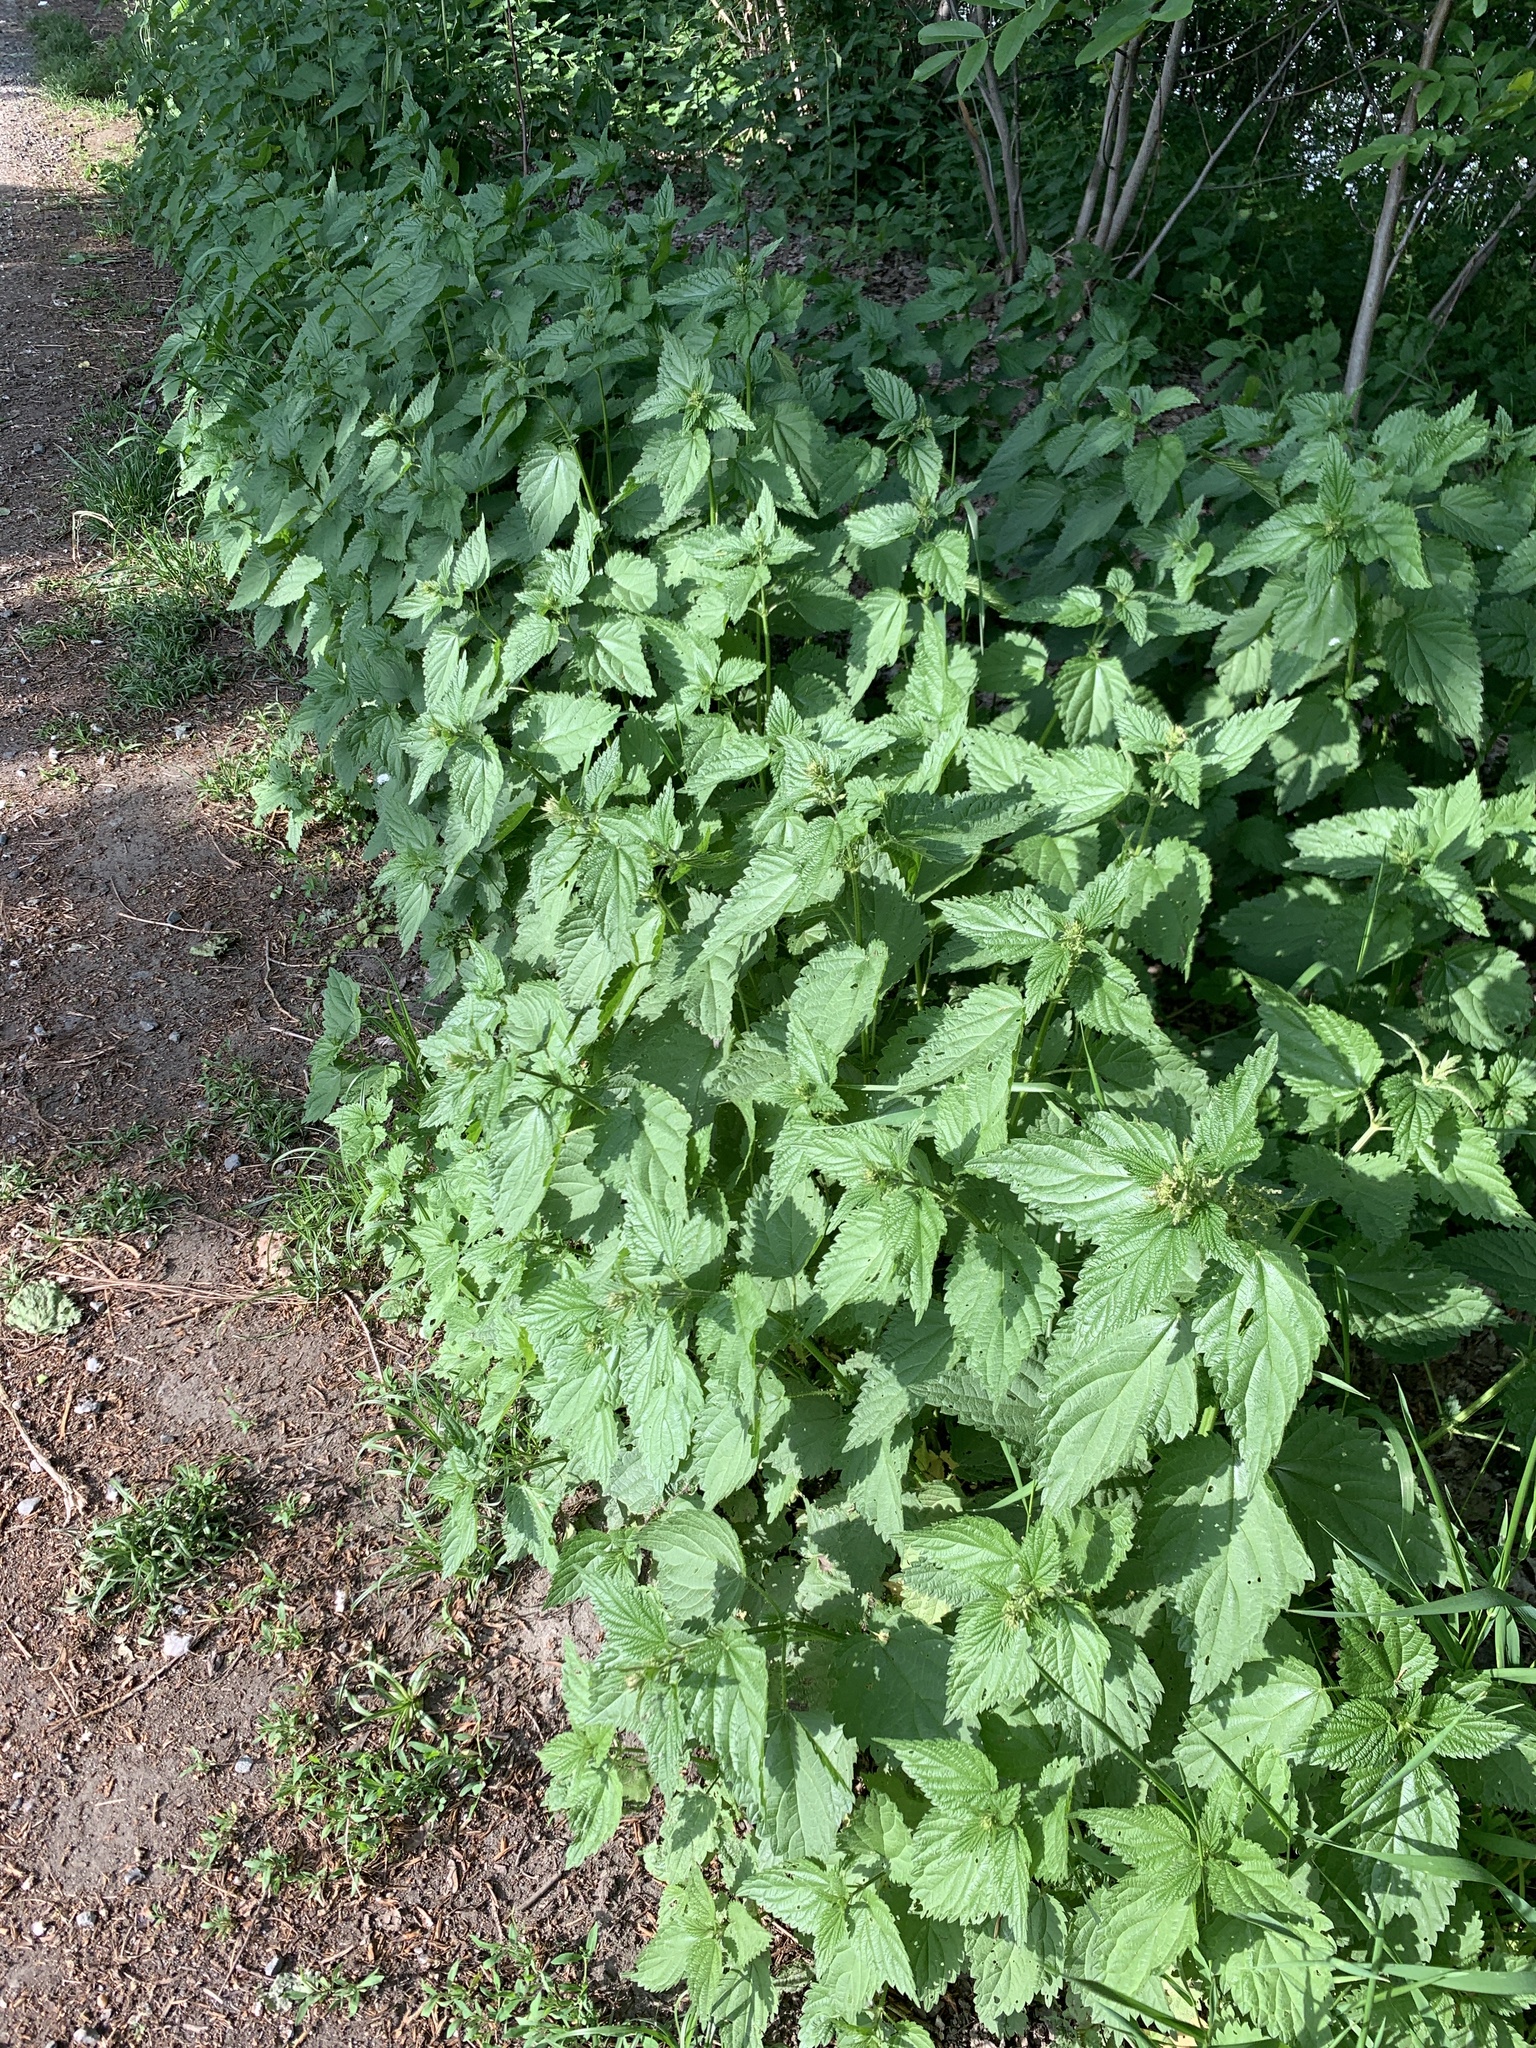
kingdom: Plantae
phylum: Tracheophyta
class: Magnoliopsida
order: Rosales
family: Urticaceae
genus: Urtica
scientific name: Urtica dioica
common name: Common nettle
